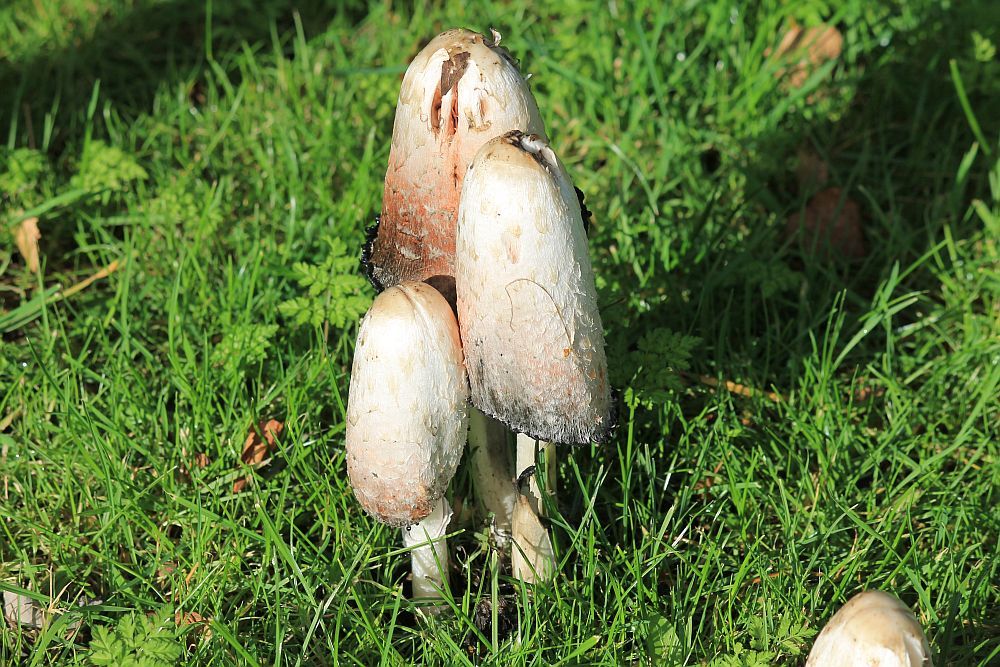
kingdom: Fungi
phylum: Basidiomycota
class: Agaricomycetes
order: Agaricales
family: Agaricaceae
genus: Coprinus
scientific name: Coprinus comatus
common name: Lawyer's wig
